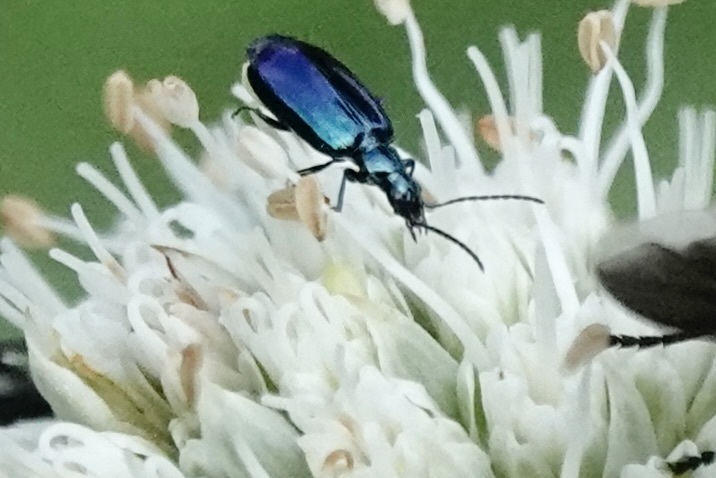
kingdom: Animalia
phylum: Arthropoda
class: Insecta
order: Coleoptera
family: Carabidae
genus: Lebia
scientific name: Lebia viridis
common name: Flower lebia beetle
